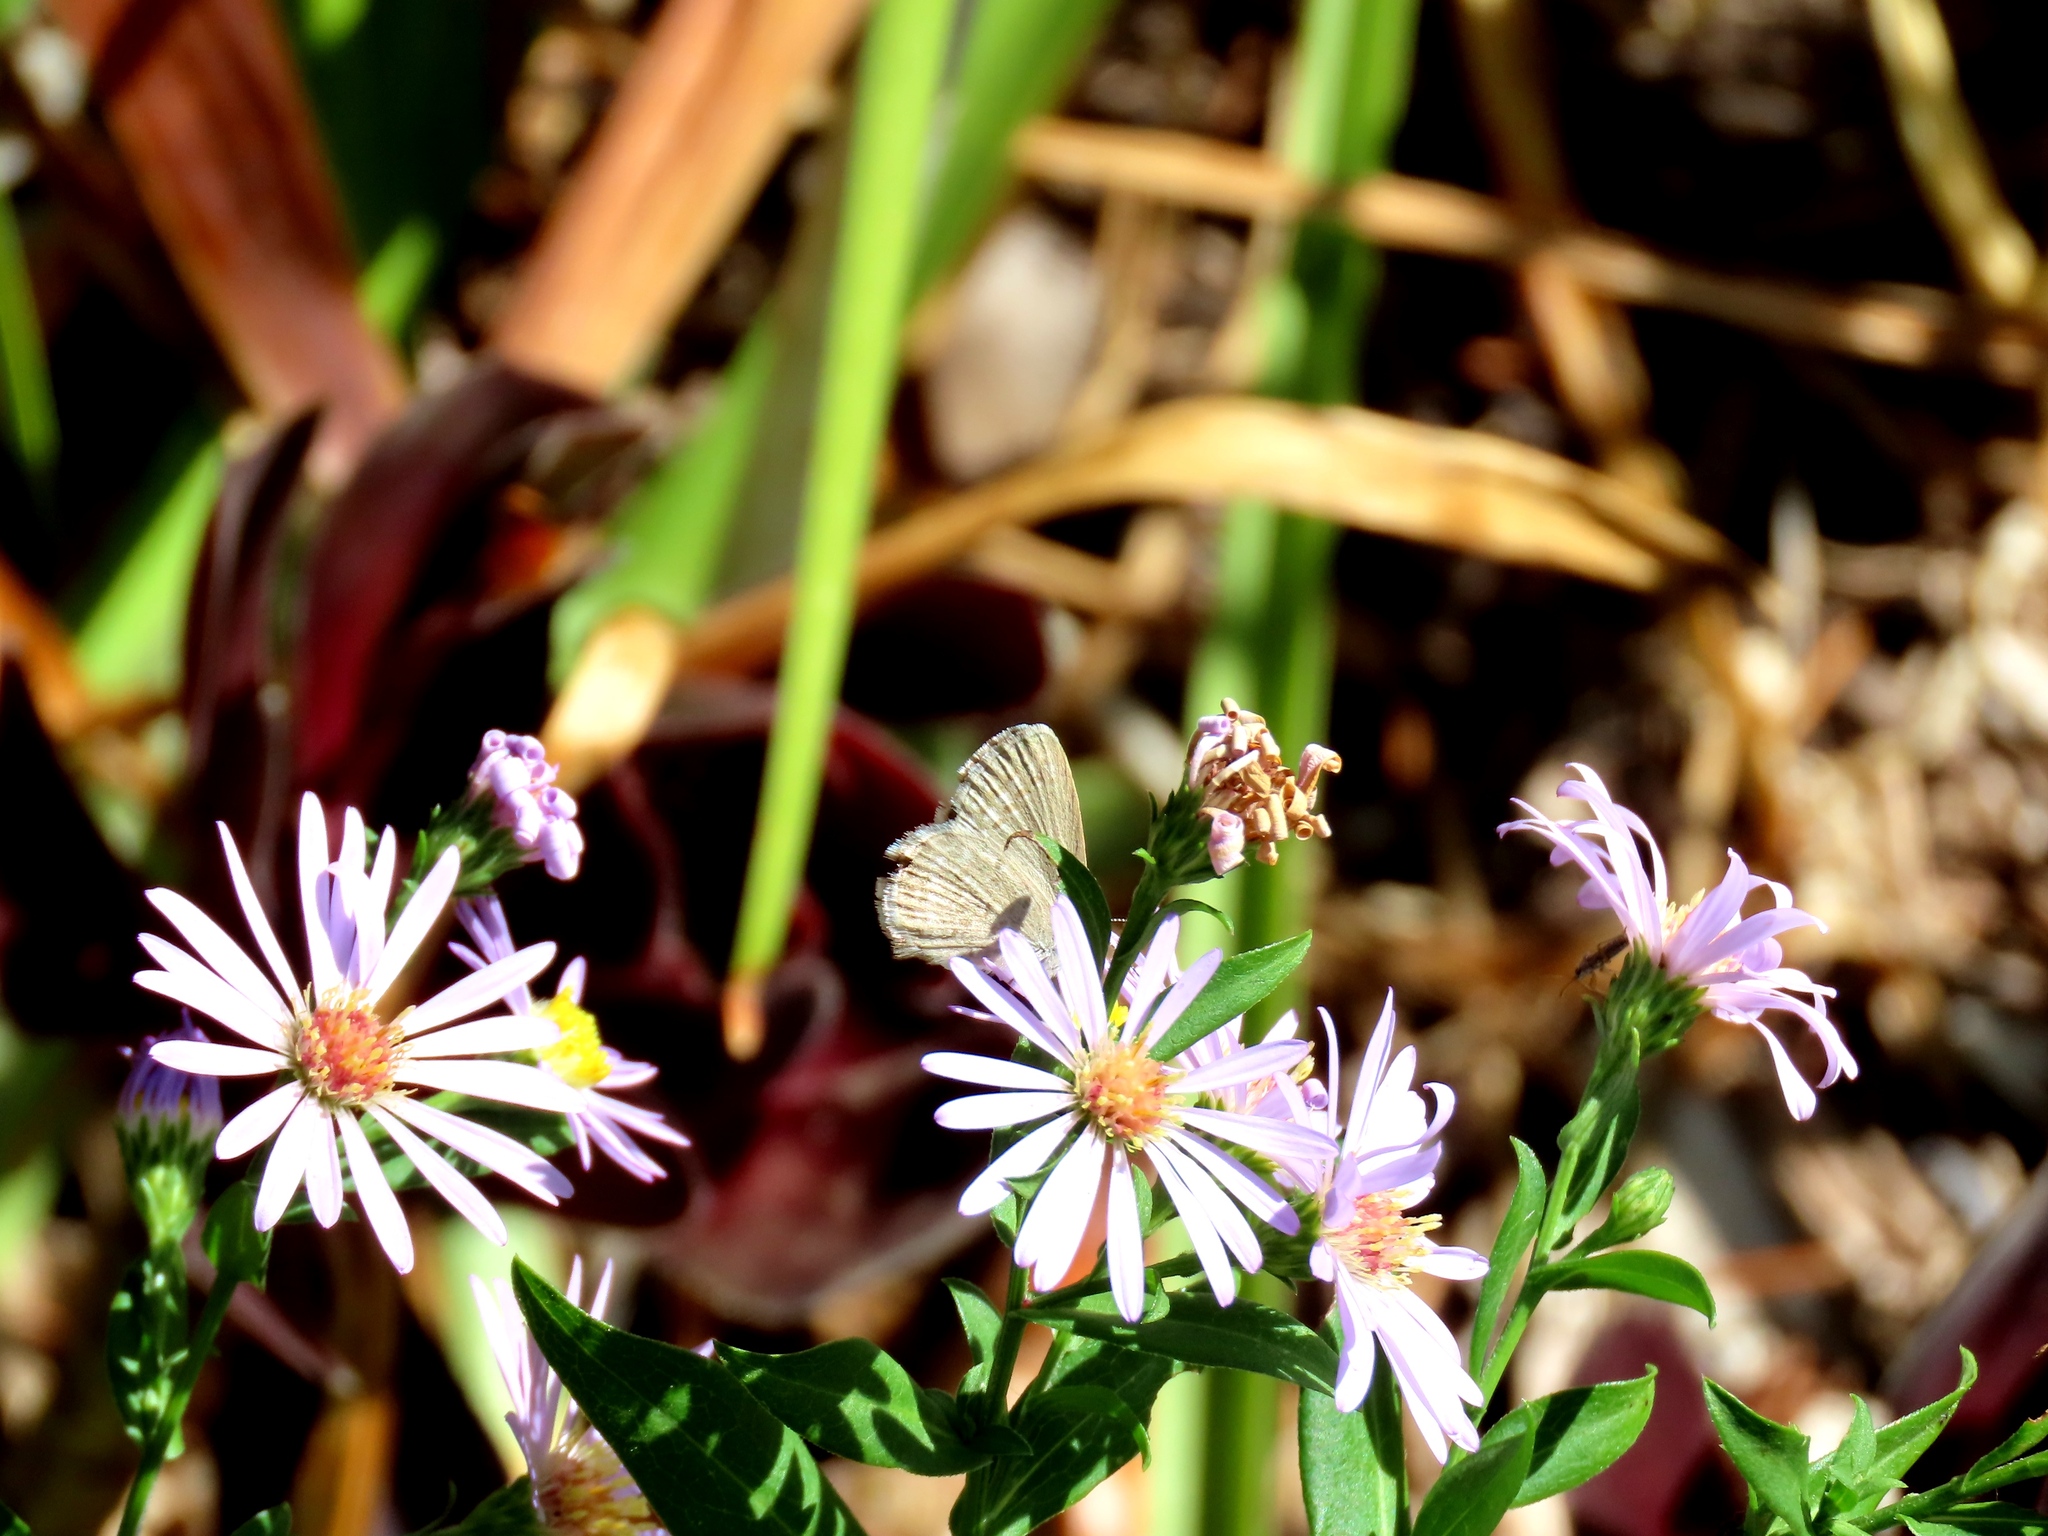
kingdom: Animalia
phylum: Arthropoda
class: Insecta
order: Lepidoptera
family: Lycaenidae
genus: Zizina
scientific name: Zizina otis
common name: Lesser grass blue
